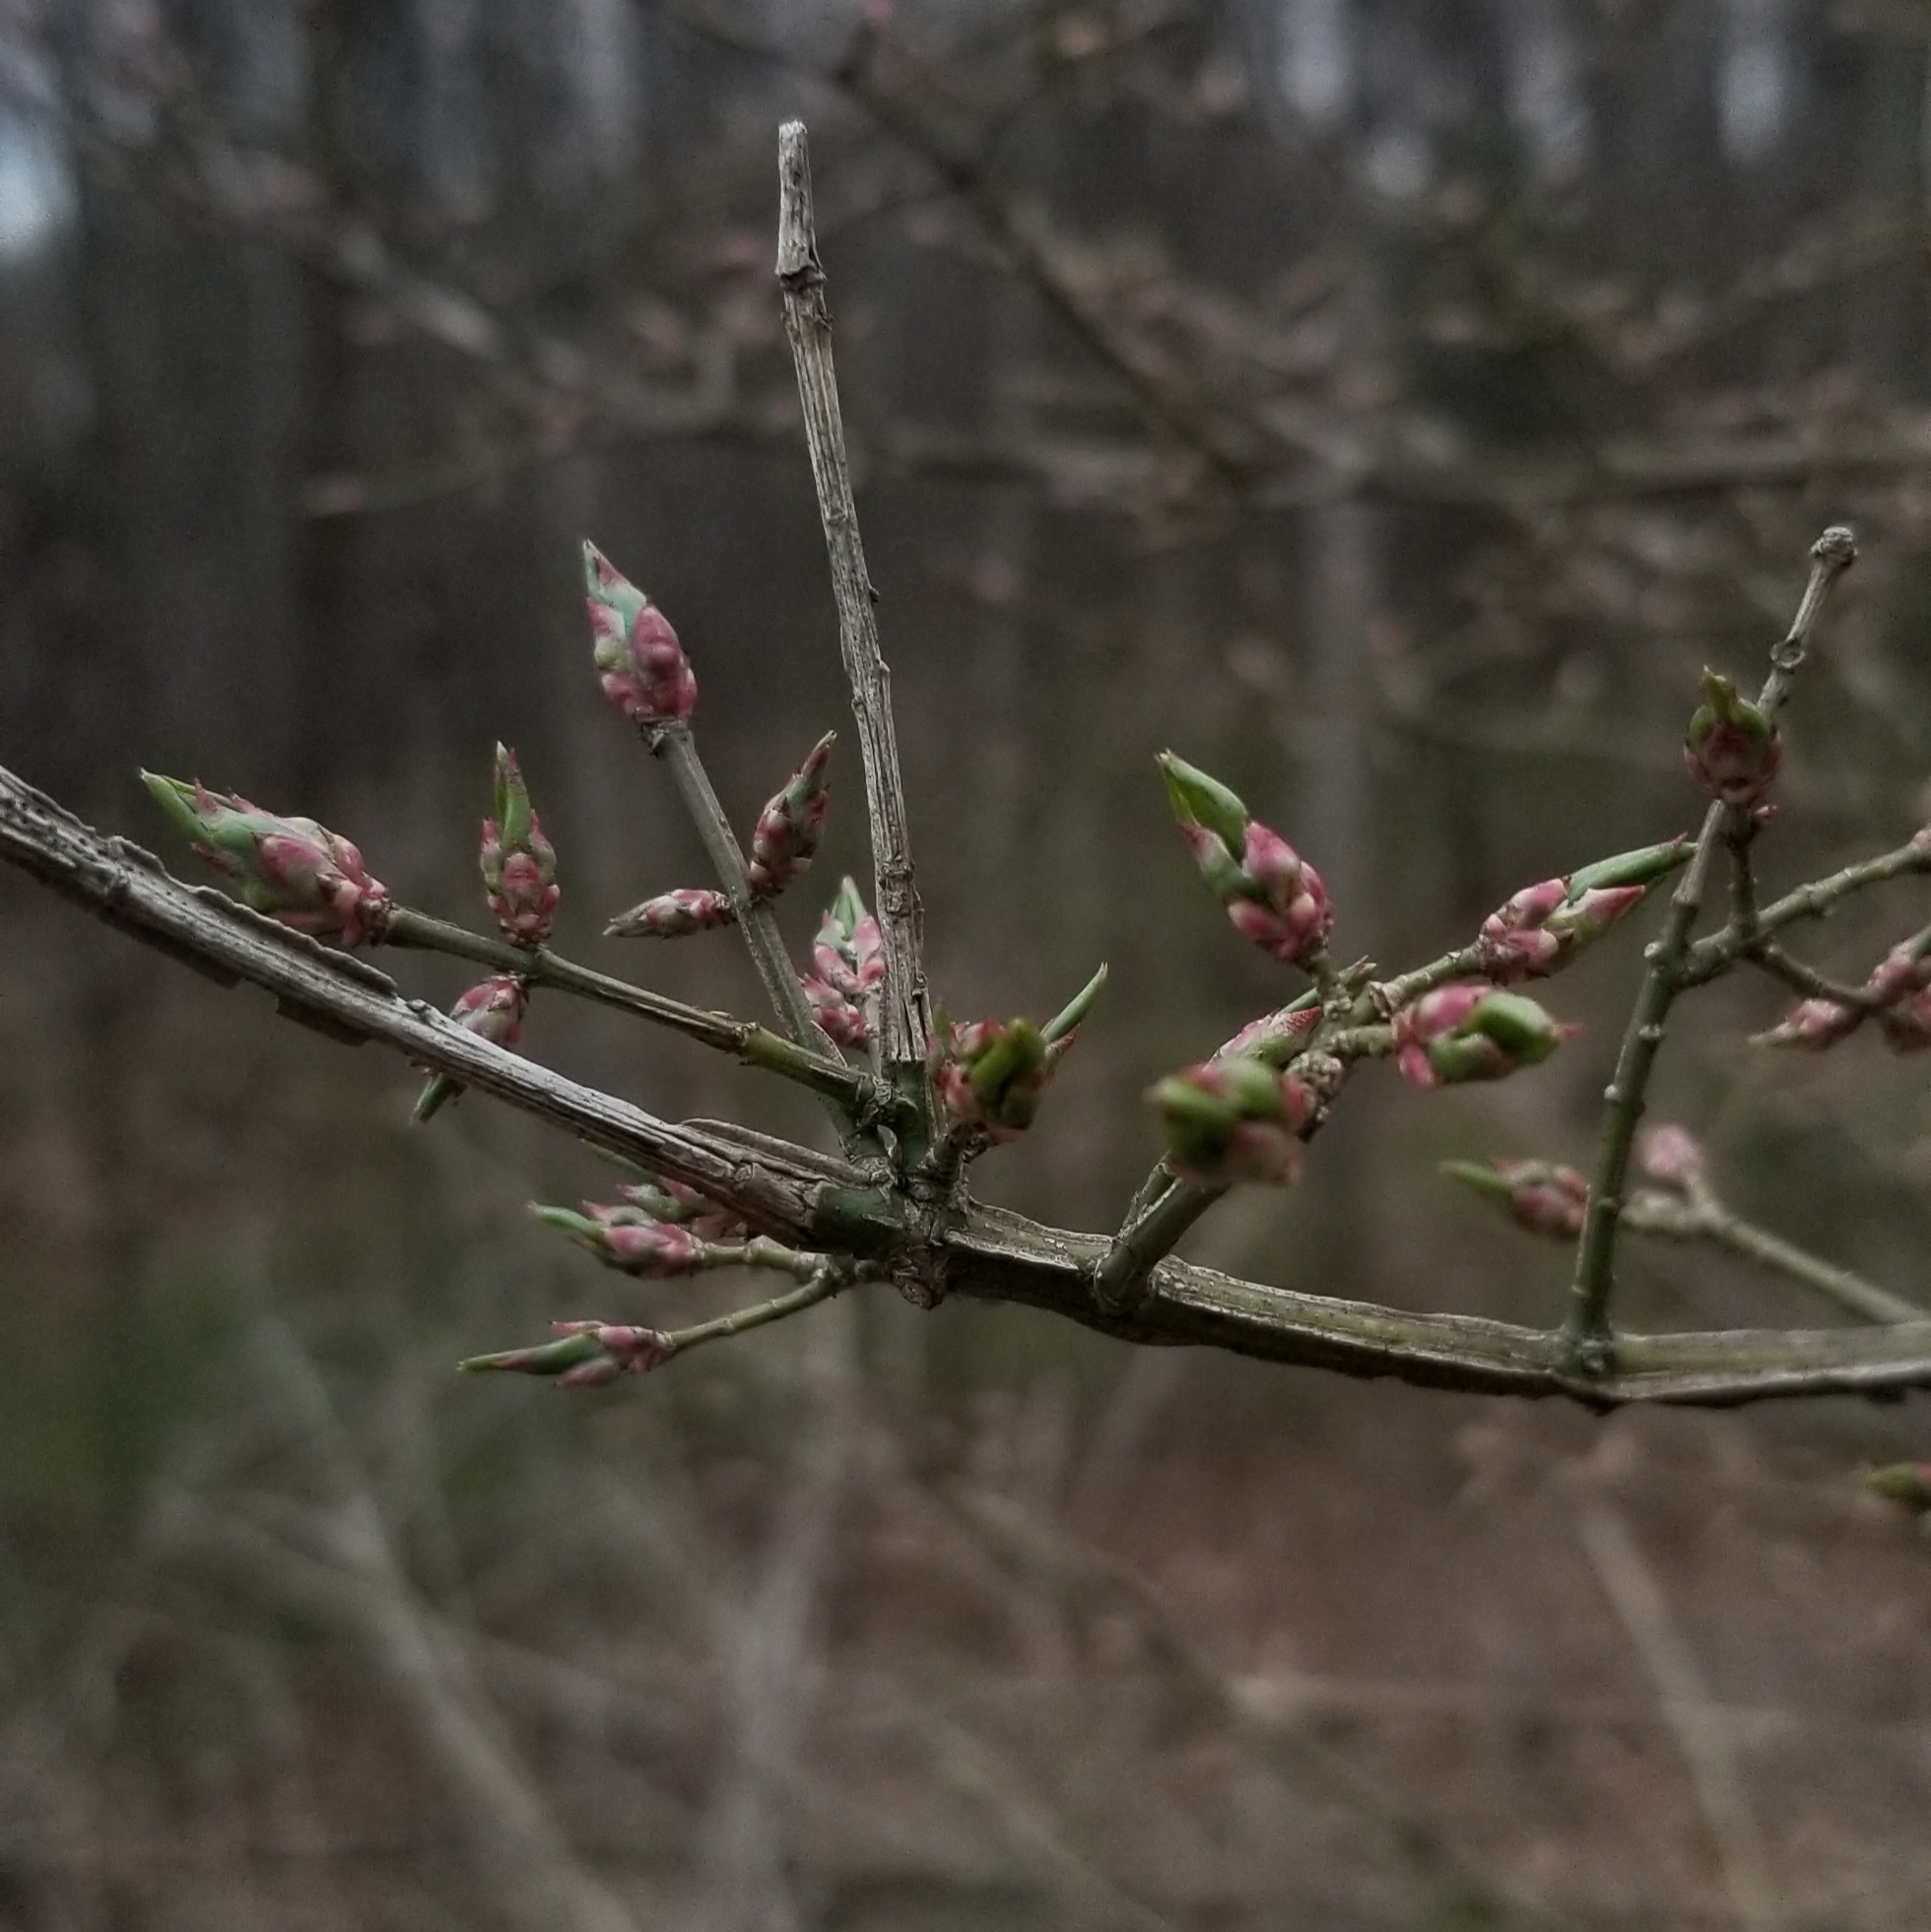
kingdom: Plantae
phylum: Tracheophyta
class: Magnoliopsida
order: Celastrales
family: Celastraceae
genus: Euonymus
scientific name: Euonymus alatus
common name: Winged euonymus
